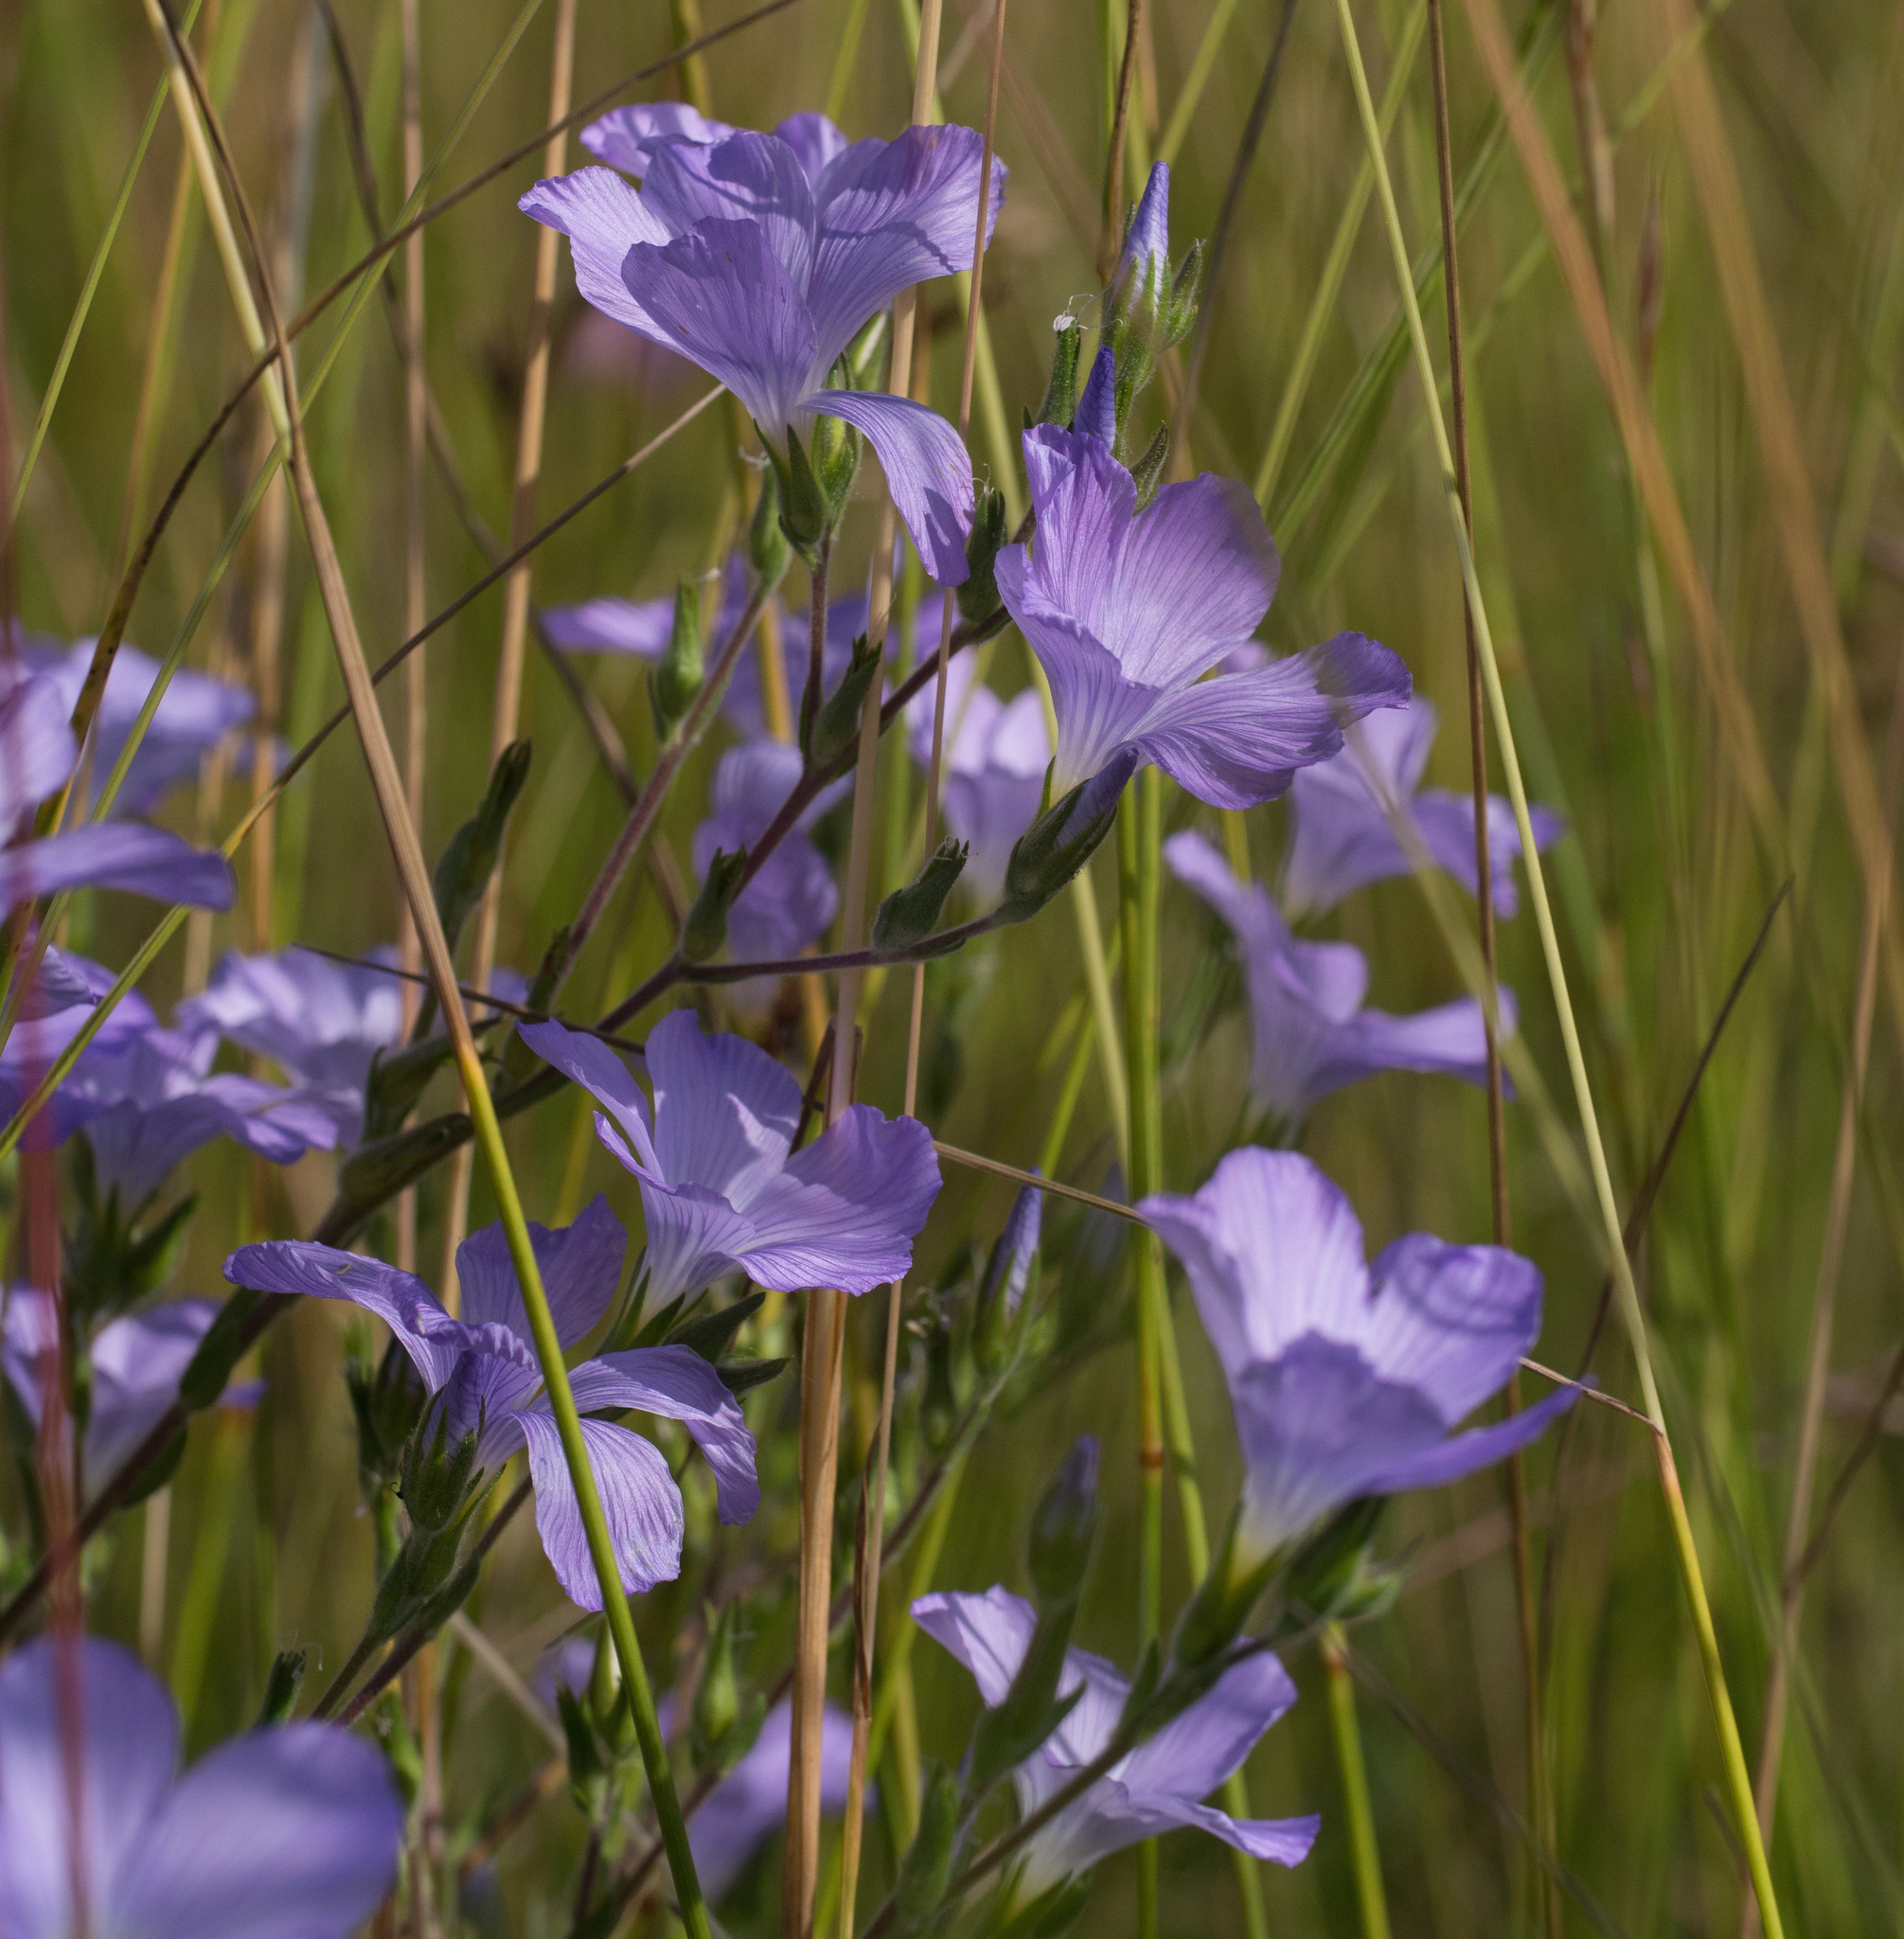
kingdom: Plantae
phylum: Tracheophyta
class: Magnoliopsida
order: Malpighiales
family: Linaceae
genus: Linum
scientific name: Linum hirsutum
